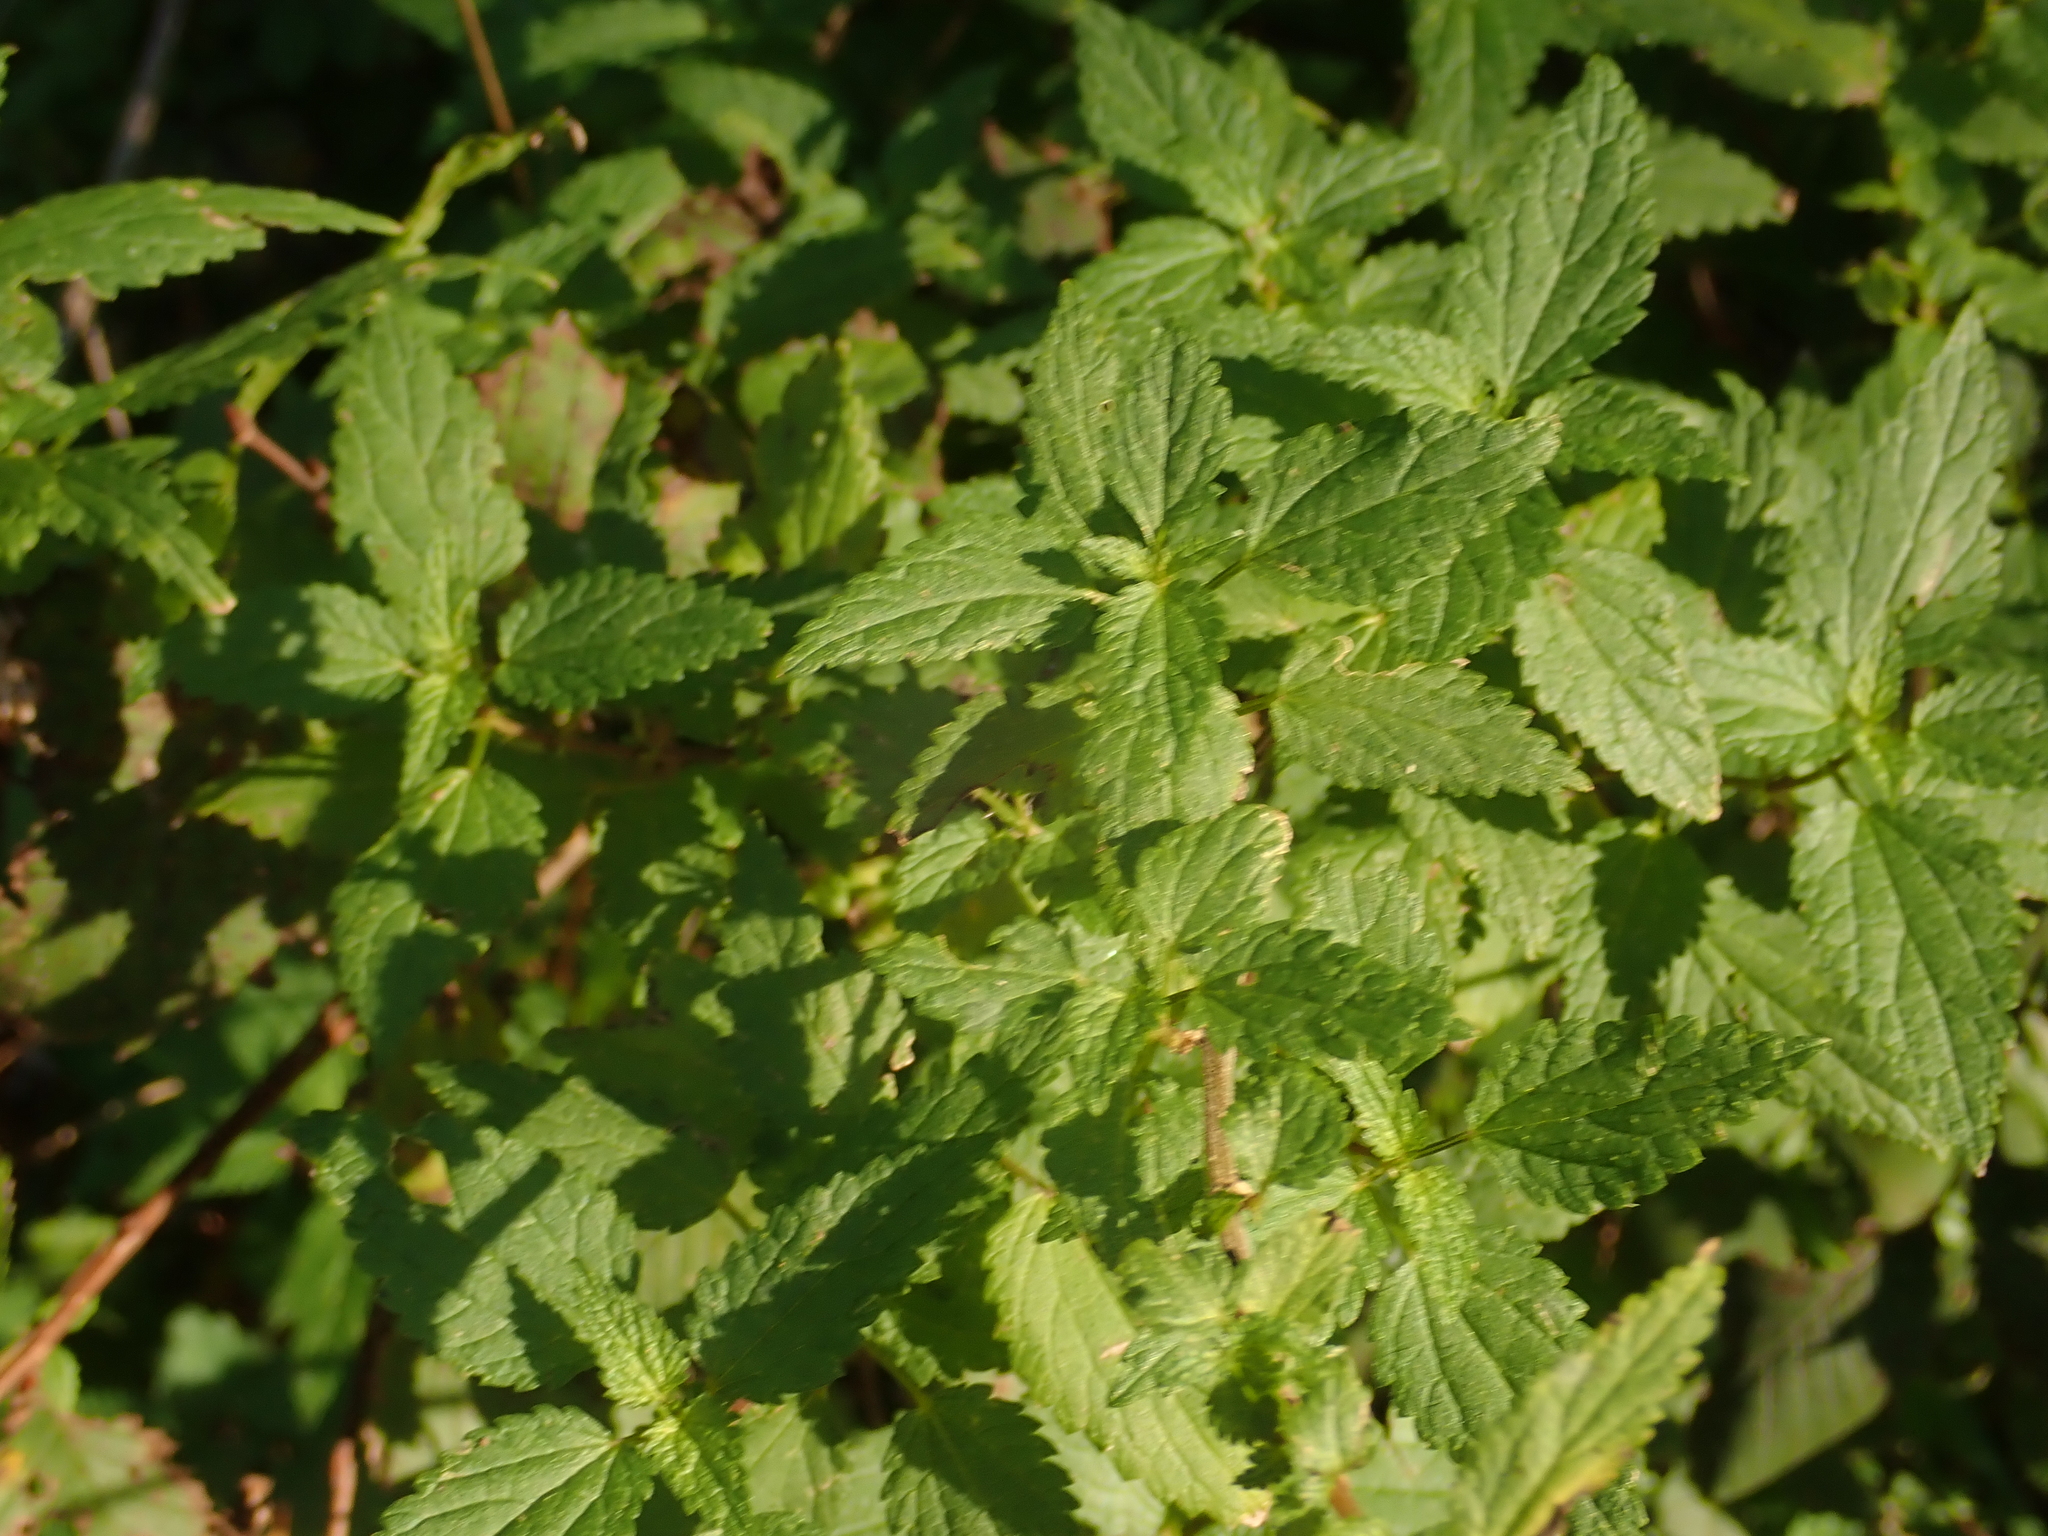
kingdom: Plantae
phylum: Tracheophyta
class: Magnoliopsida
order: Rosales
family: Urticaceae
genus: Urtica
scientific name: Urtica dioica
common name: Common nettle
